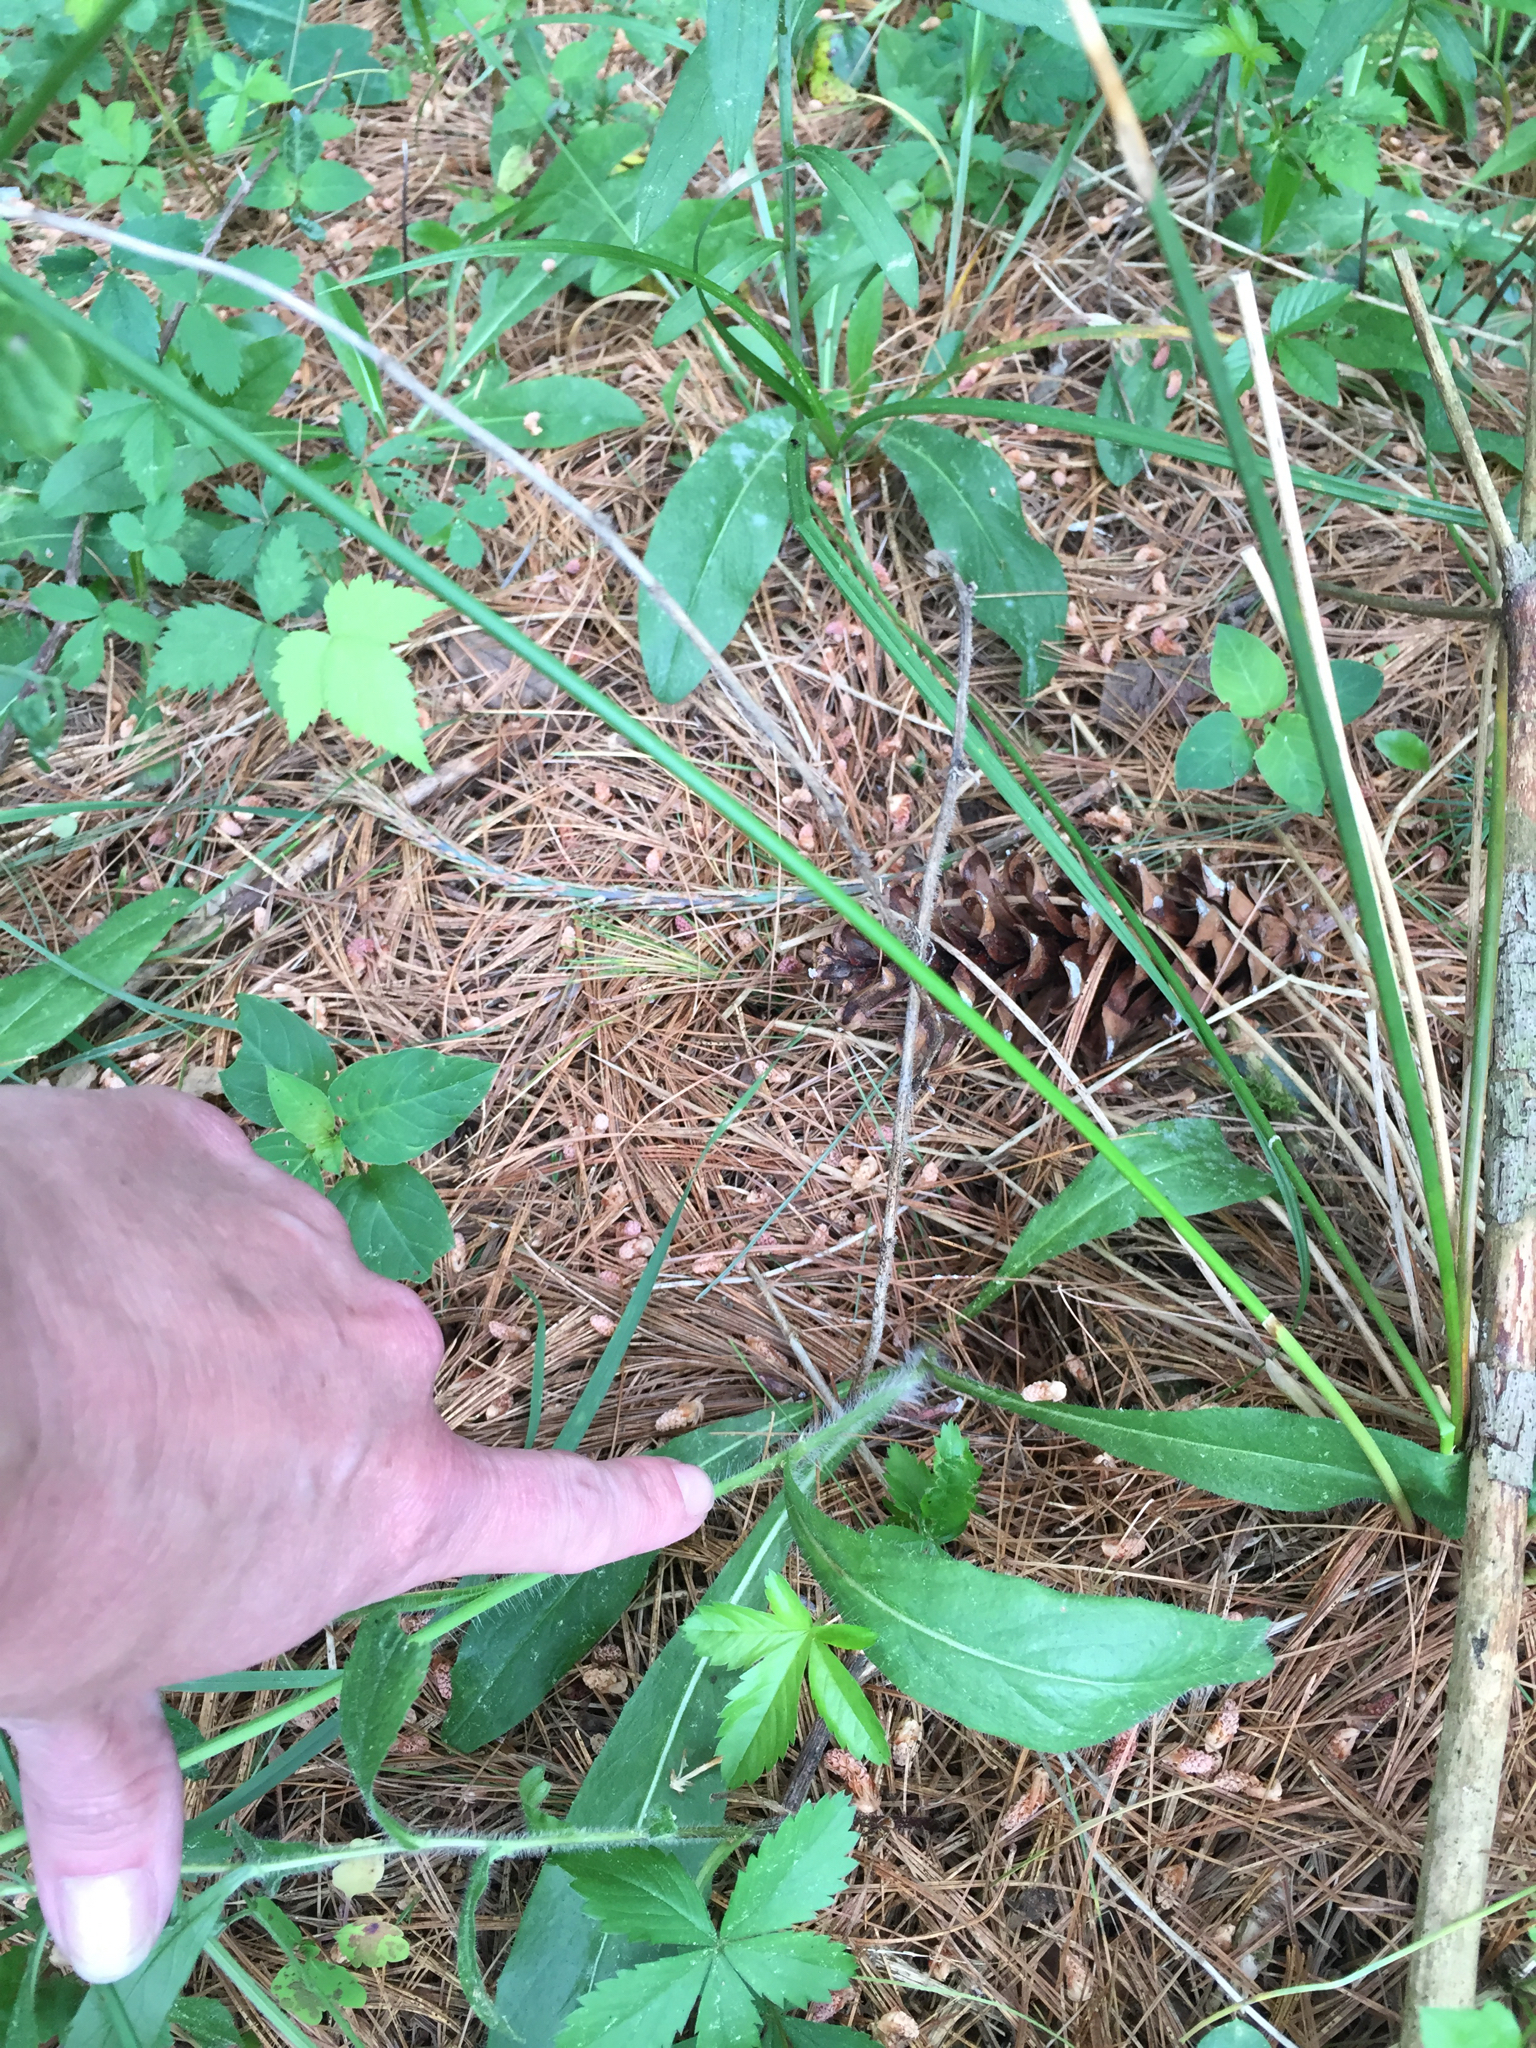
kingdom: Plantae
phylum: Tracheophyta
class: Magnoliopsida
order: Asterales
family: Asteraceae
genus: Pilosella
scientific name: Pilosella aurantiaca
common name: Fox-and-cubs
